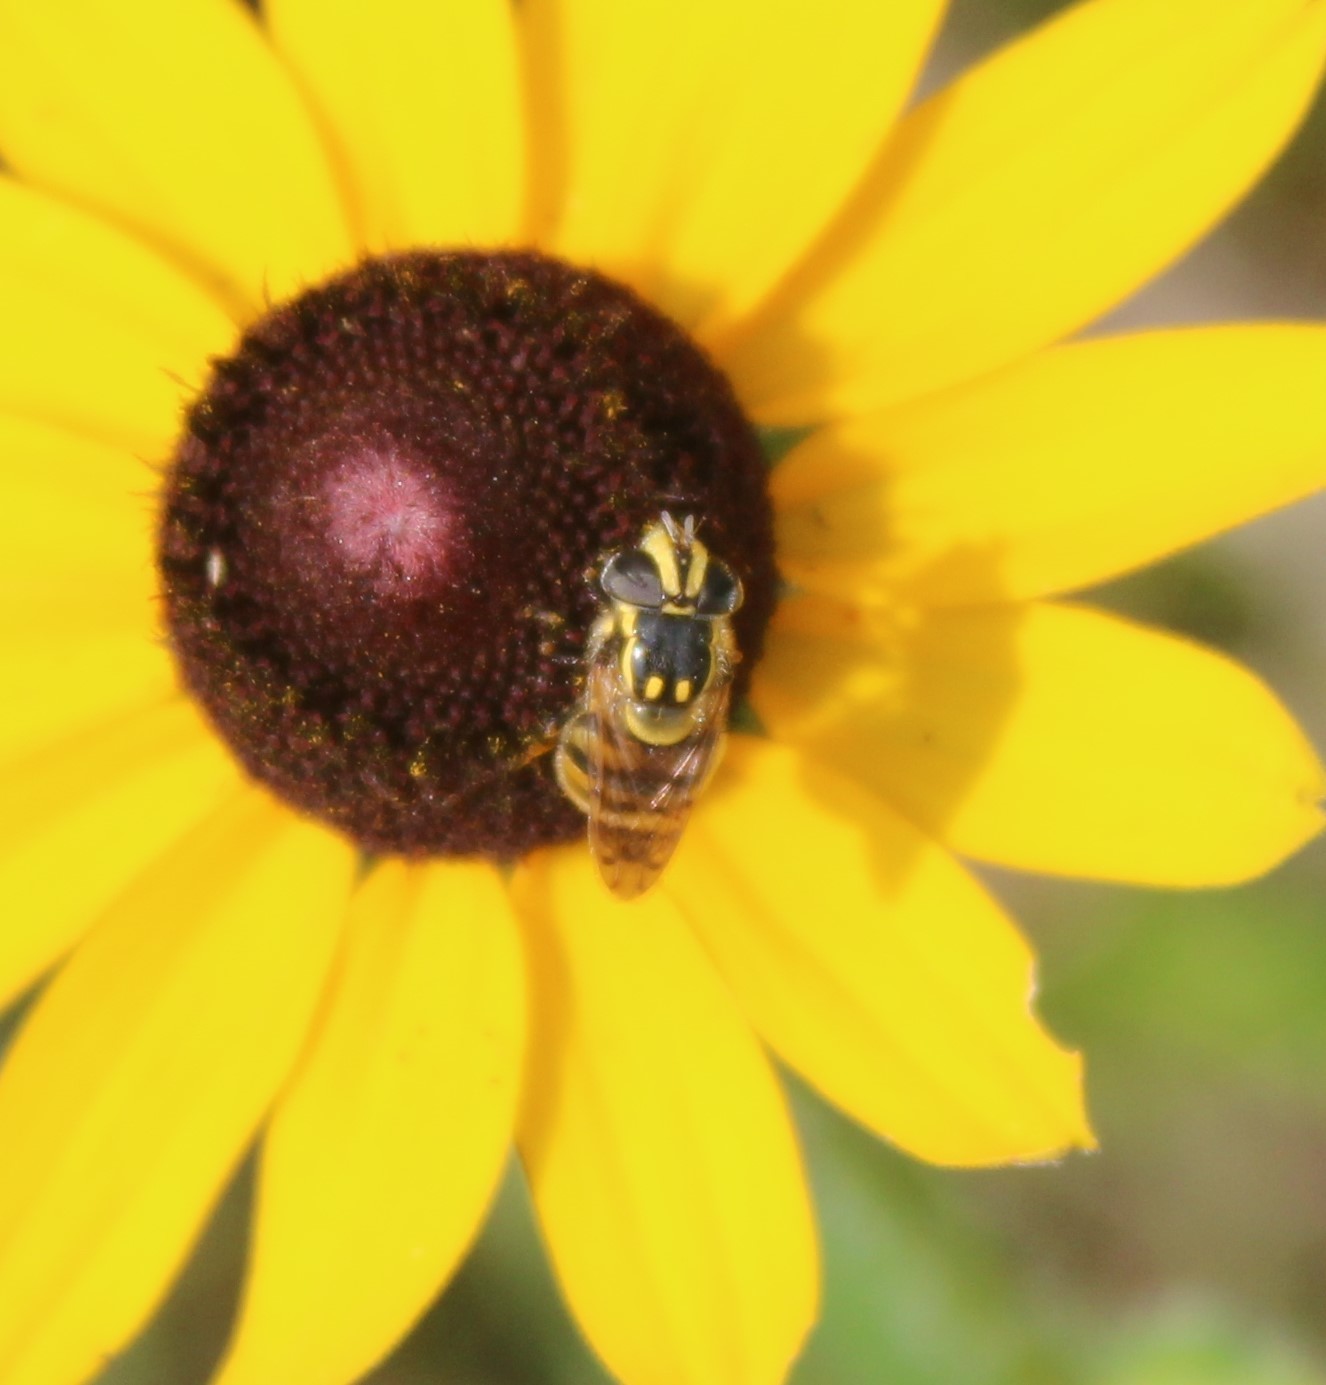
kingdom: Animalia
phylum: Arthropoda
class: Insecta
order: Diptera
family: Syrphidae
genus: Copestylum
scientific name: Copestylum vittatum
